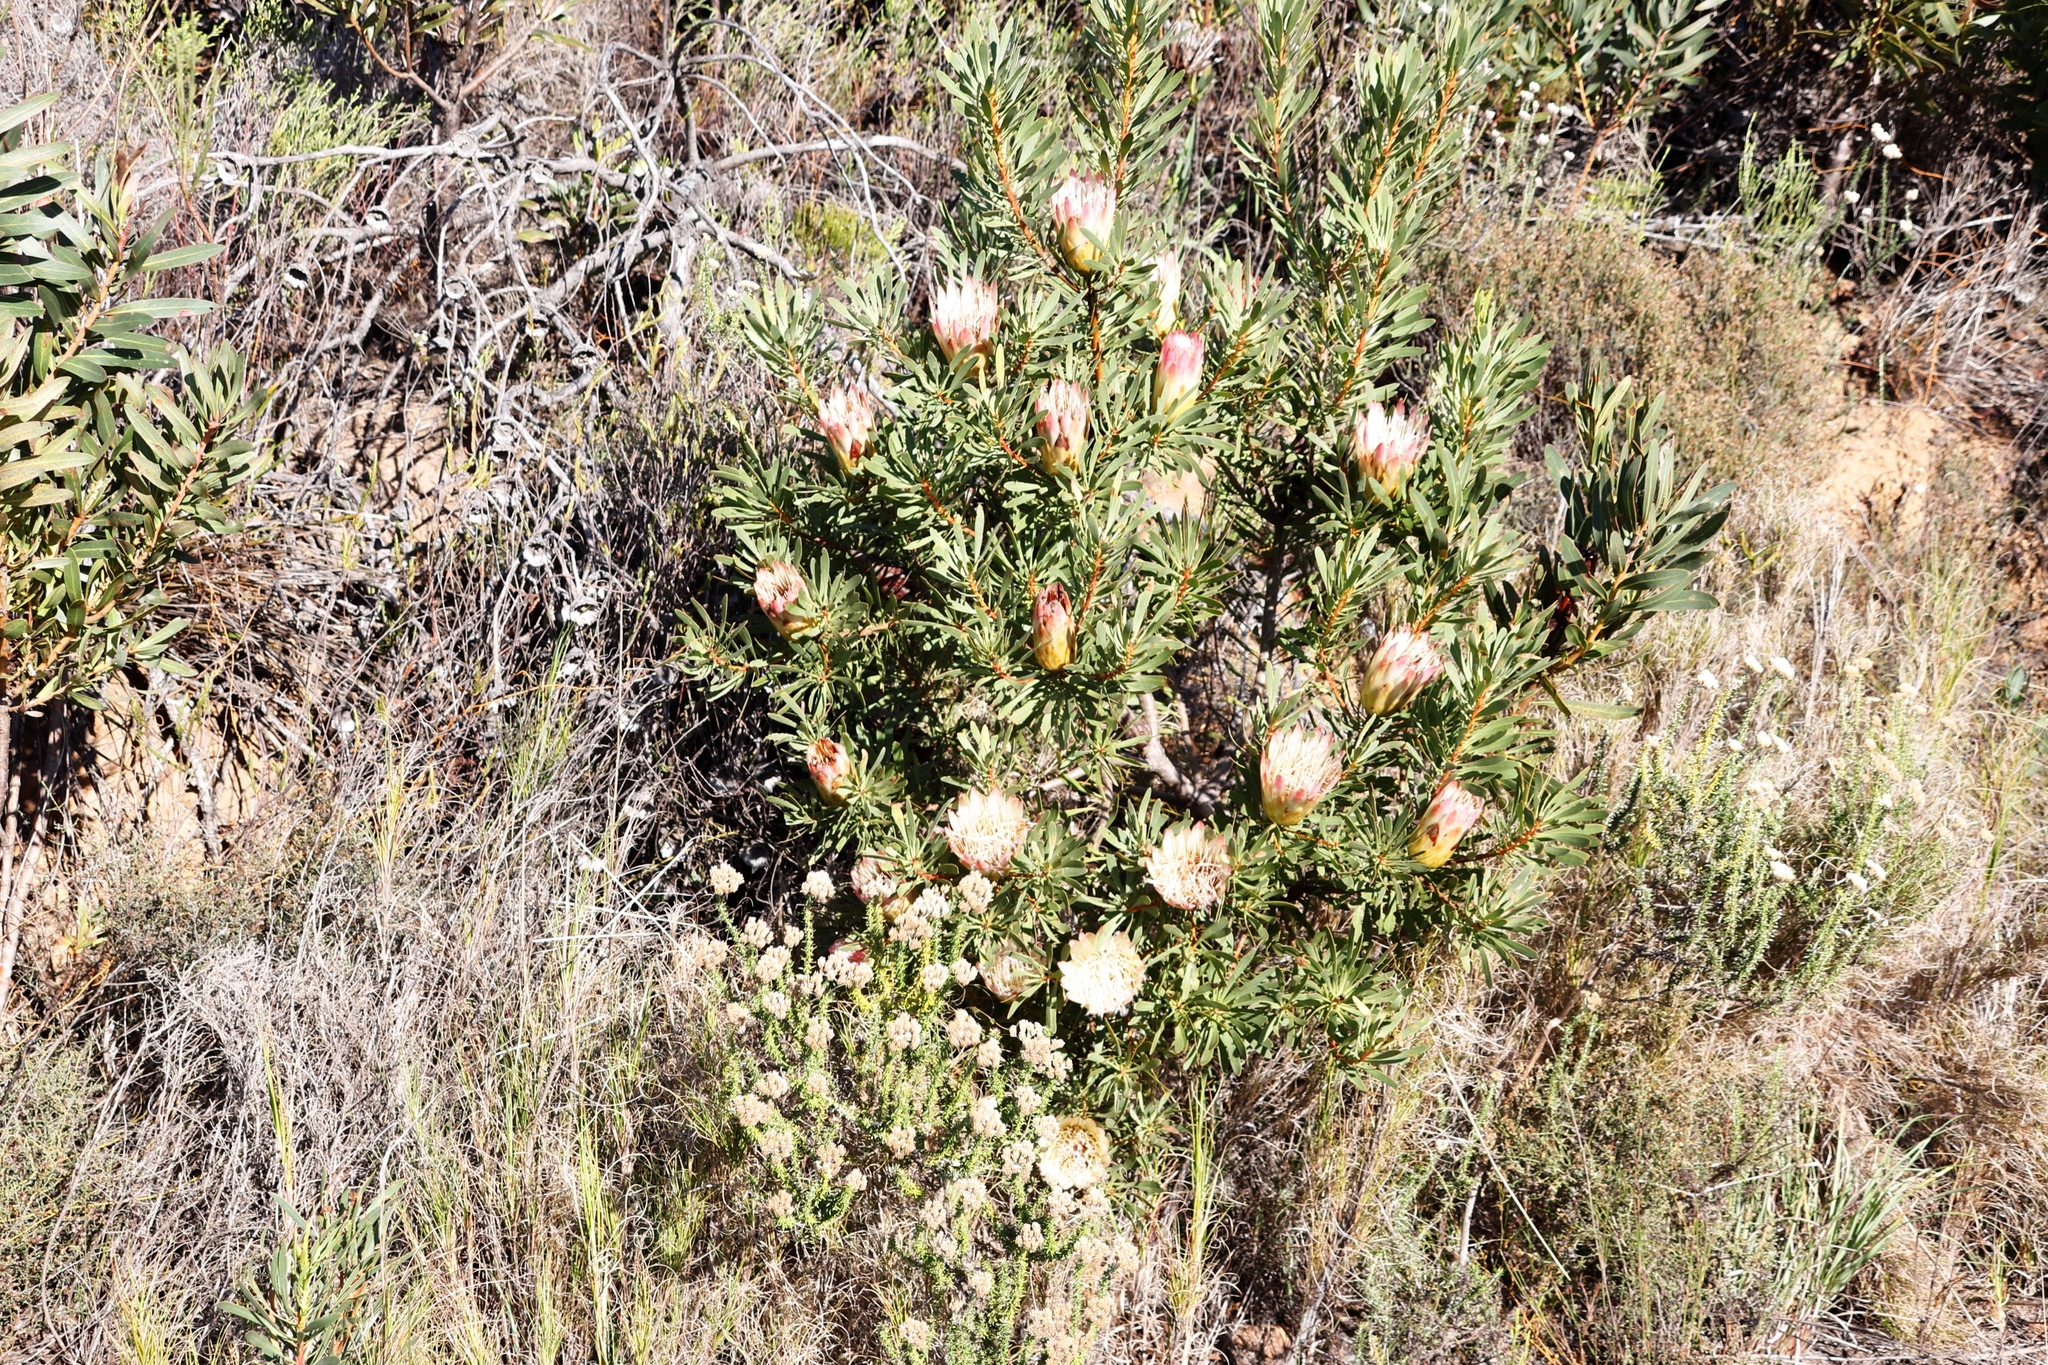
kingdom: Plantae
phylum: Tracheophyta
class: Magnoliopsida
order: Proteales
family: Proteaceae
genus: Protea
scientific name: Protea repens
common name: Sugarbush
